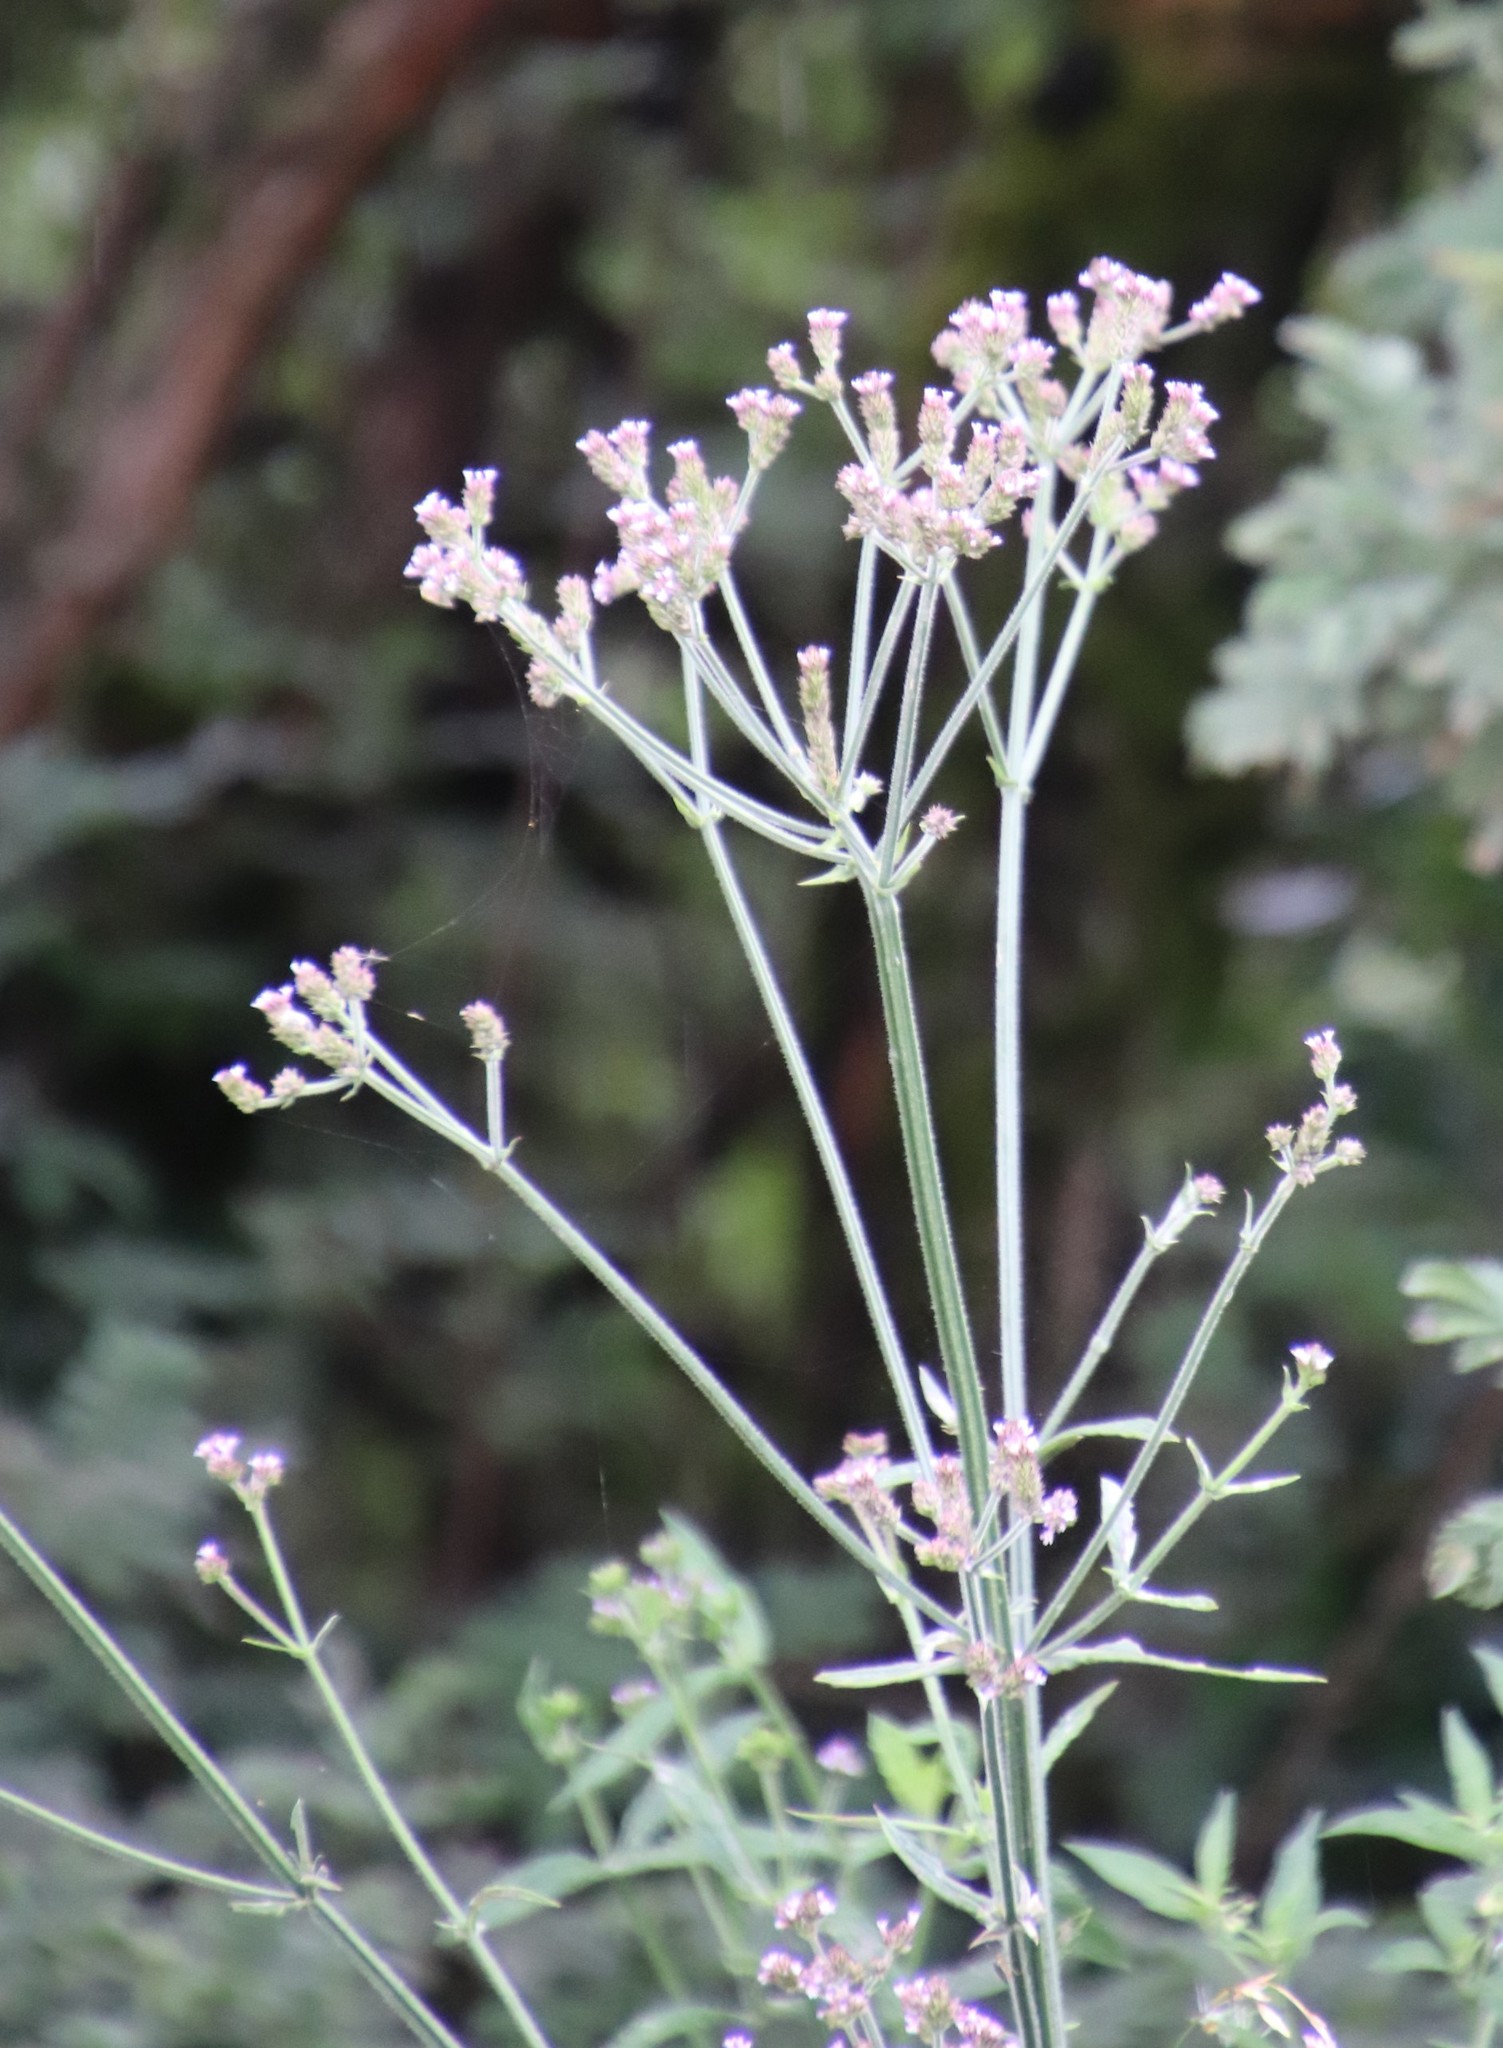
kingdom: Plantae
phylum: Tracheophyta
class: Magnoliopsida
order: Lamiales
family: Verbenaceae
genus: Verbena
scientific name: Verbena brasiliensis
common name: Brazilian vervain
